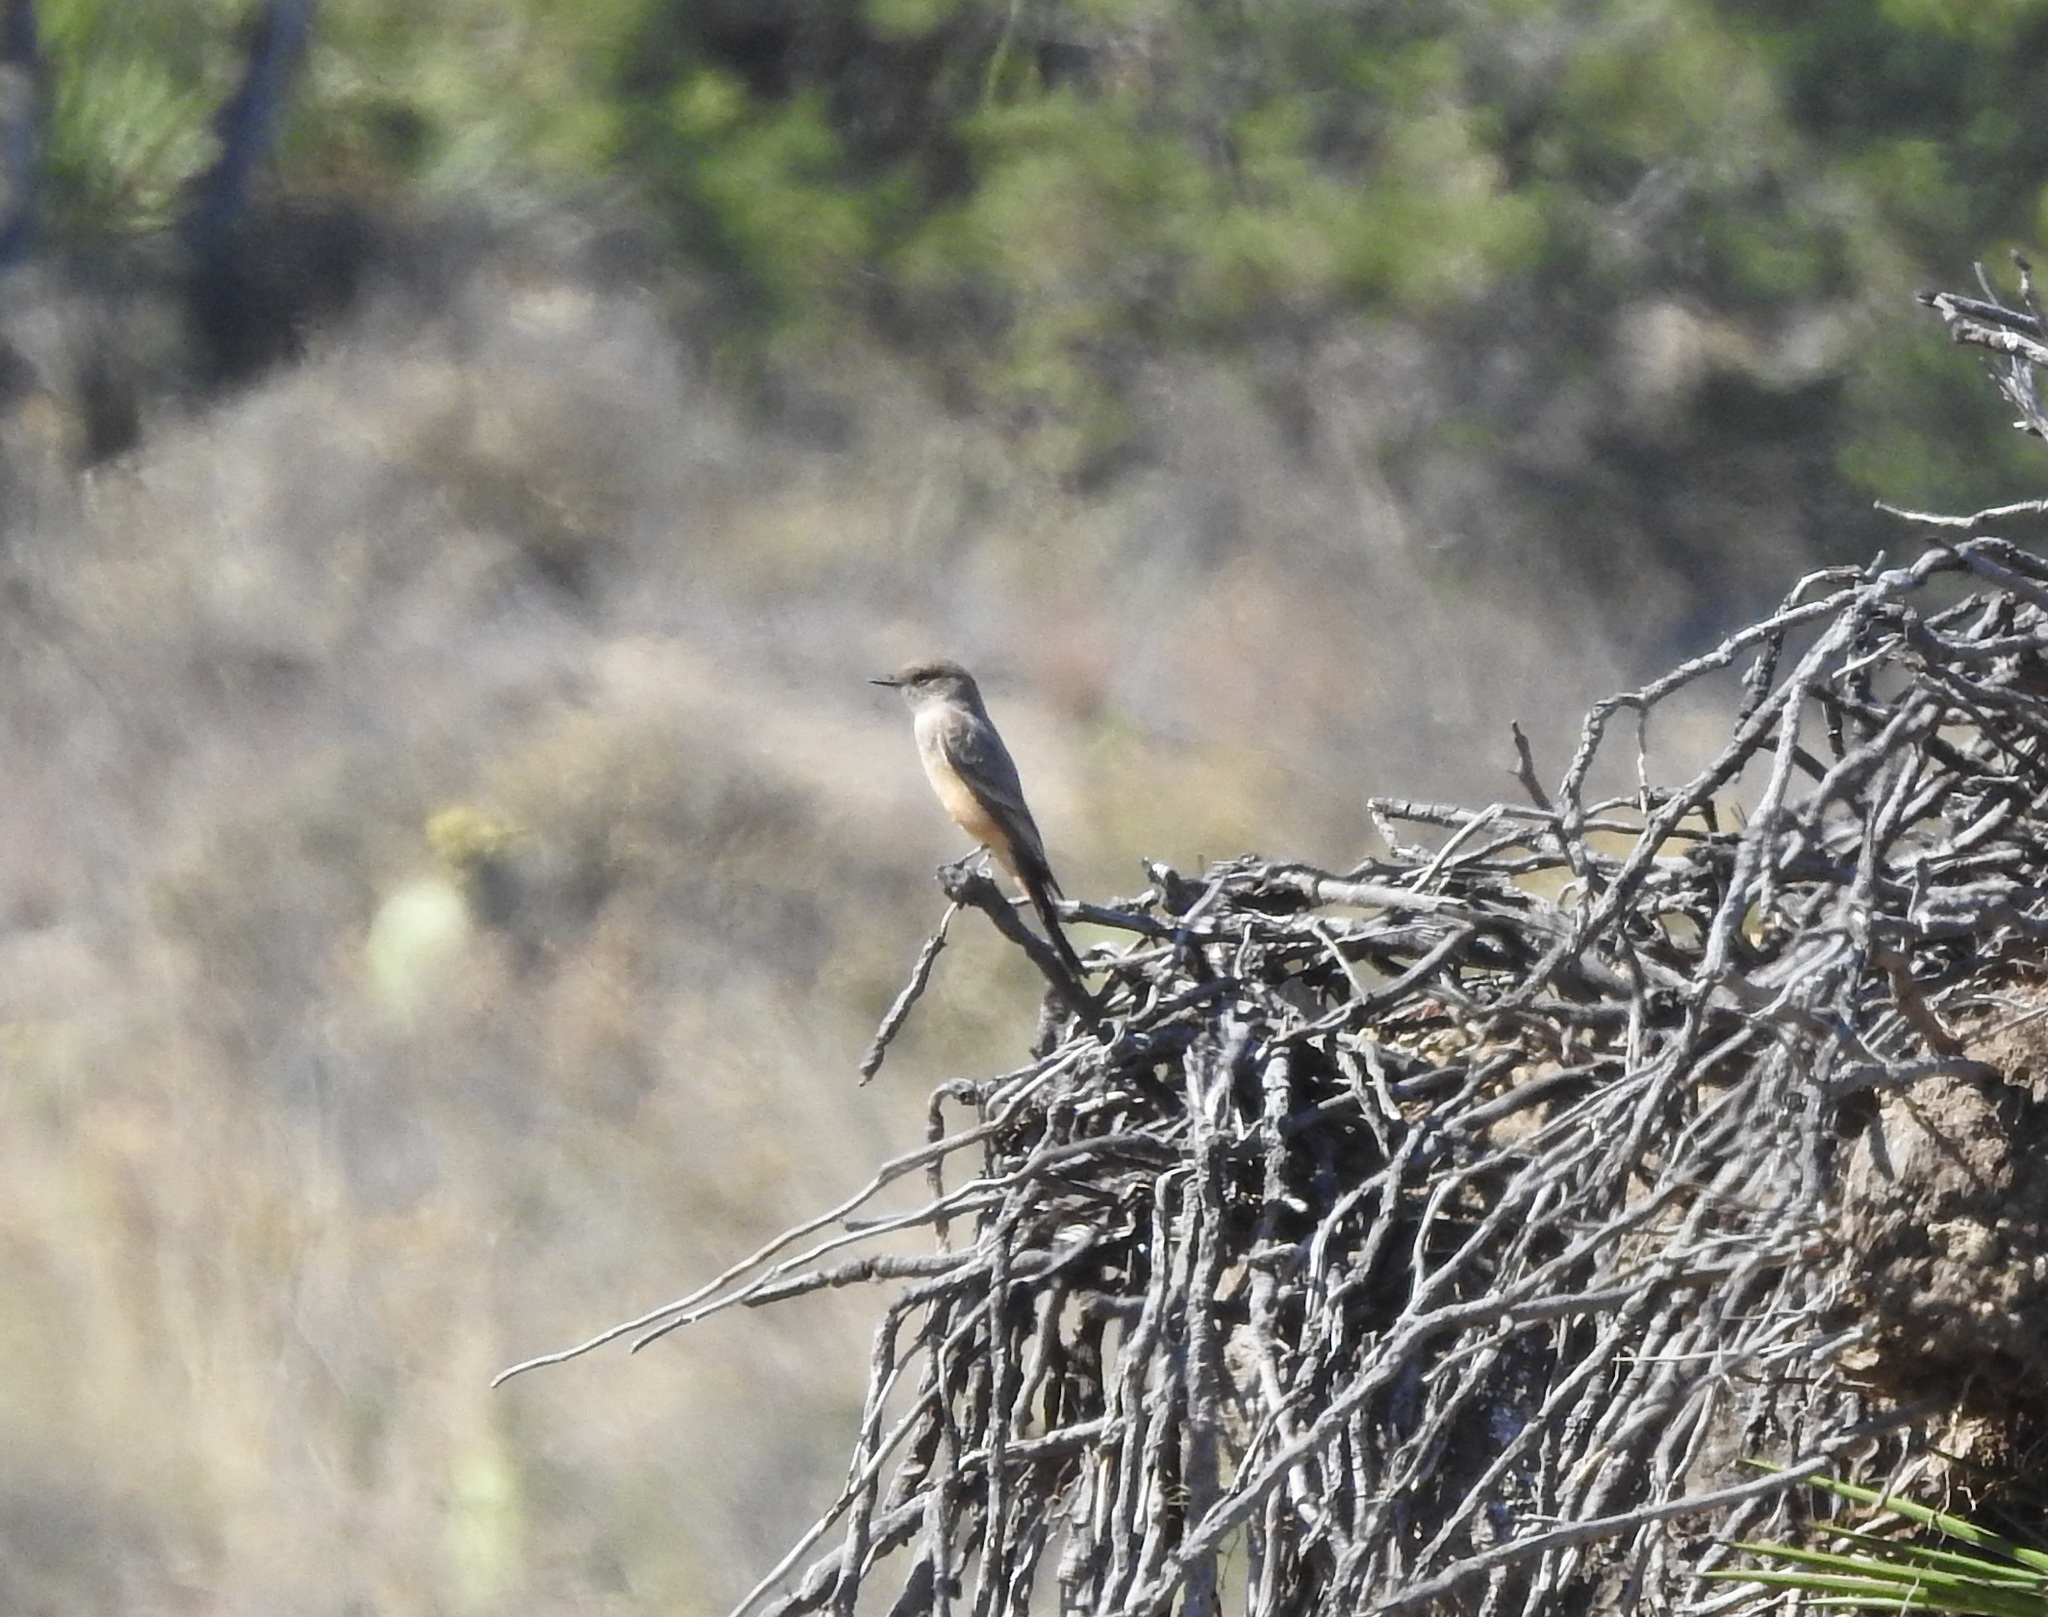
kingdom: Animalia
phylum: Chordata
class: Aves
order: Passeriformes
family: Tyrannidae
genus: Sayornis
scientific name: Sayornis saya
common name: Say's phoebe
